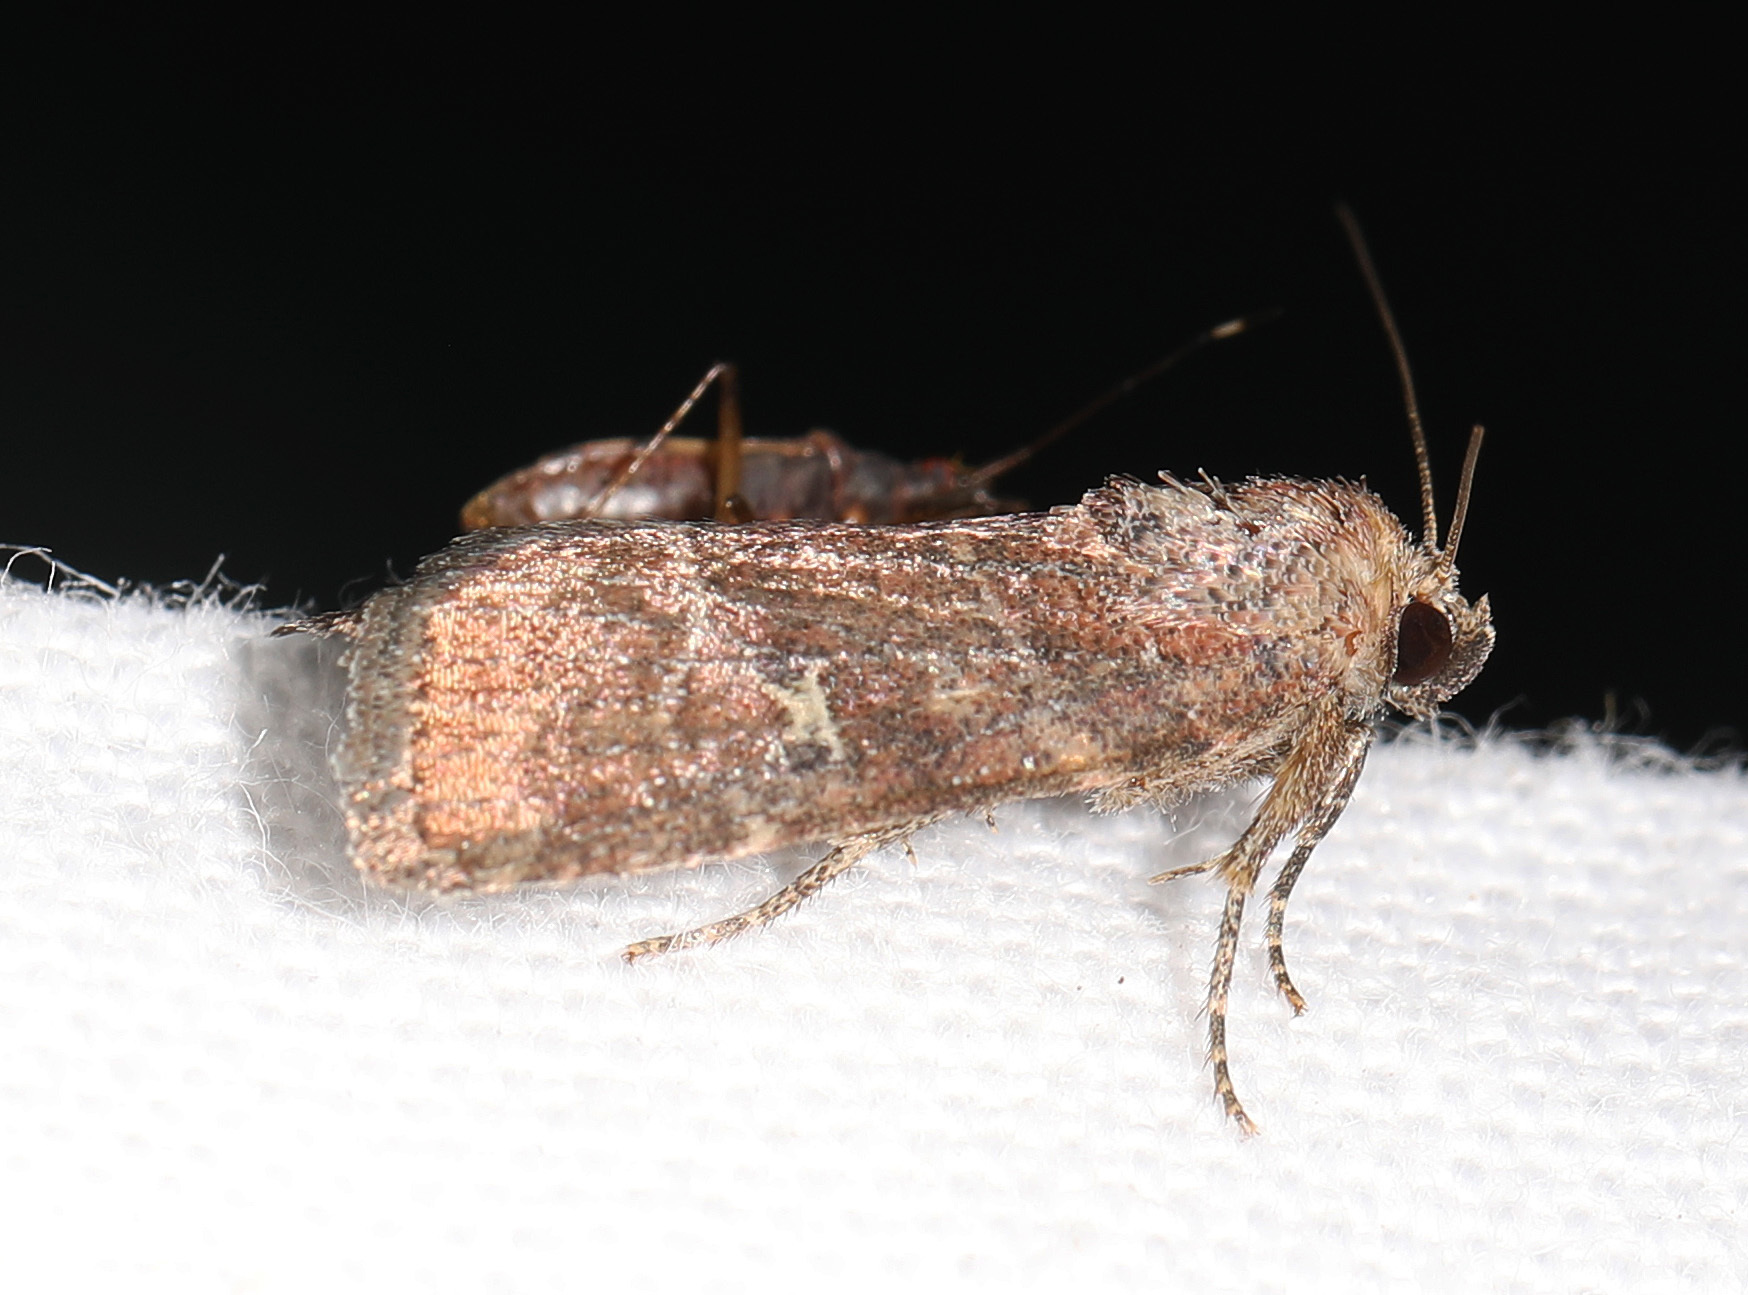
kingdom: Animalia
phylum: Arthropoda
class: Insecta
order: Lepidoptera
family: Noctuidae
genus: Elaphria
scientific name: Elaphria grata
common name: Grateful midget moth
